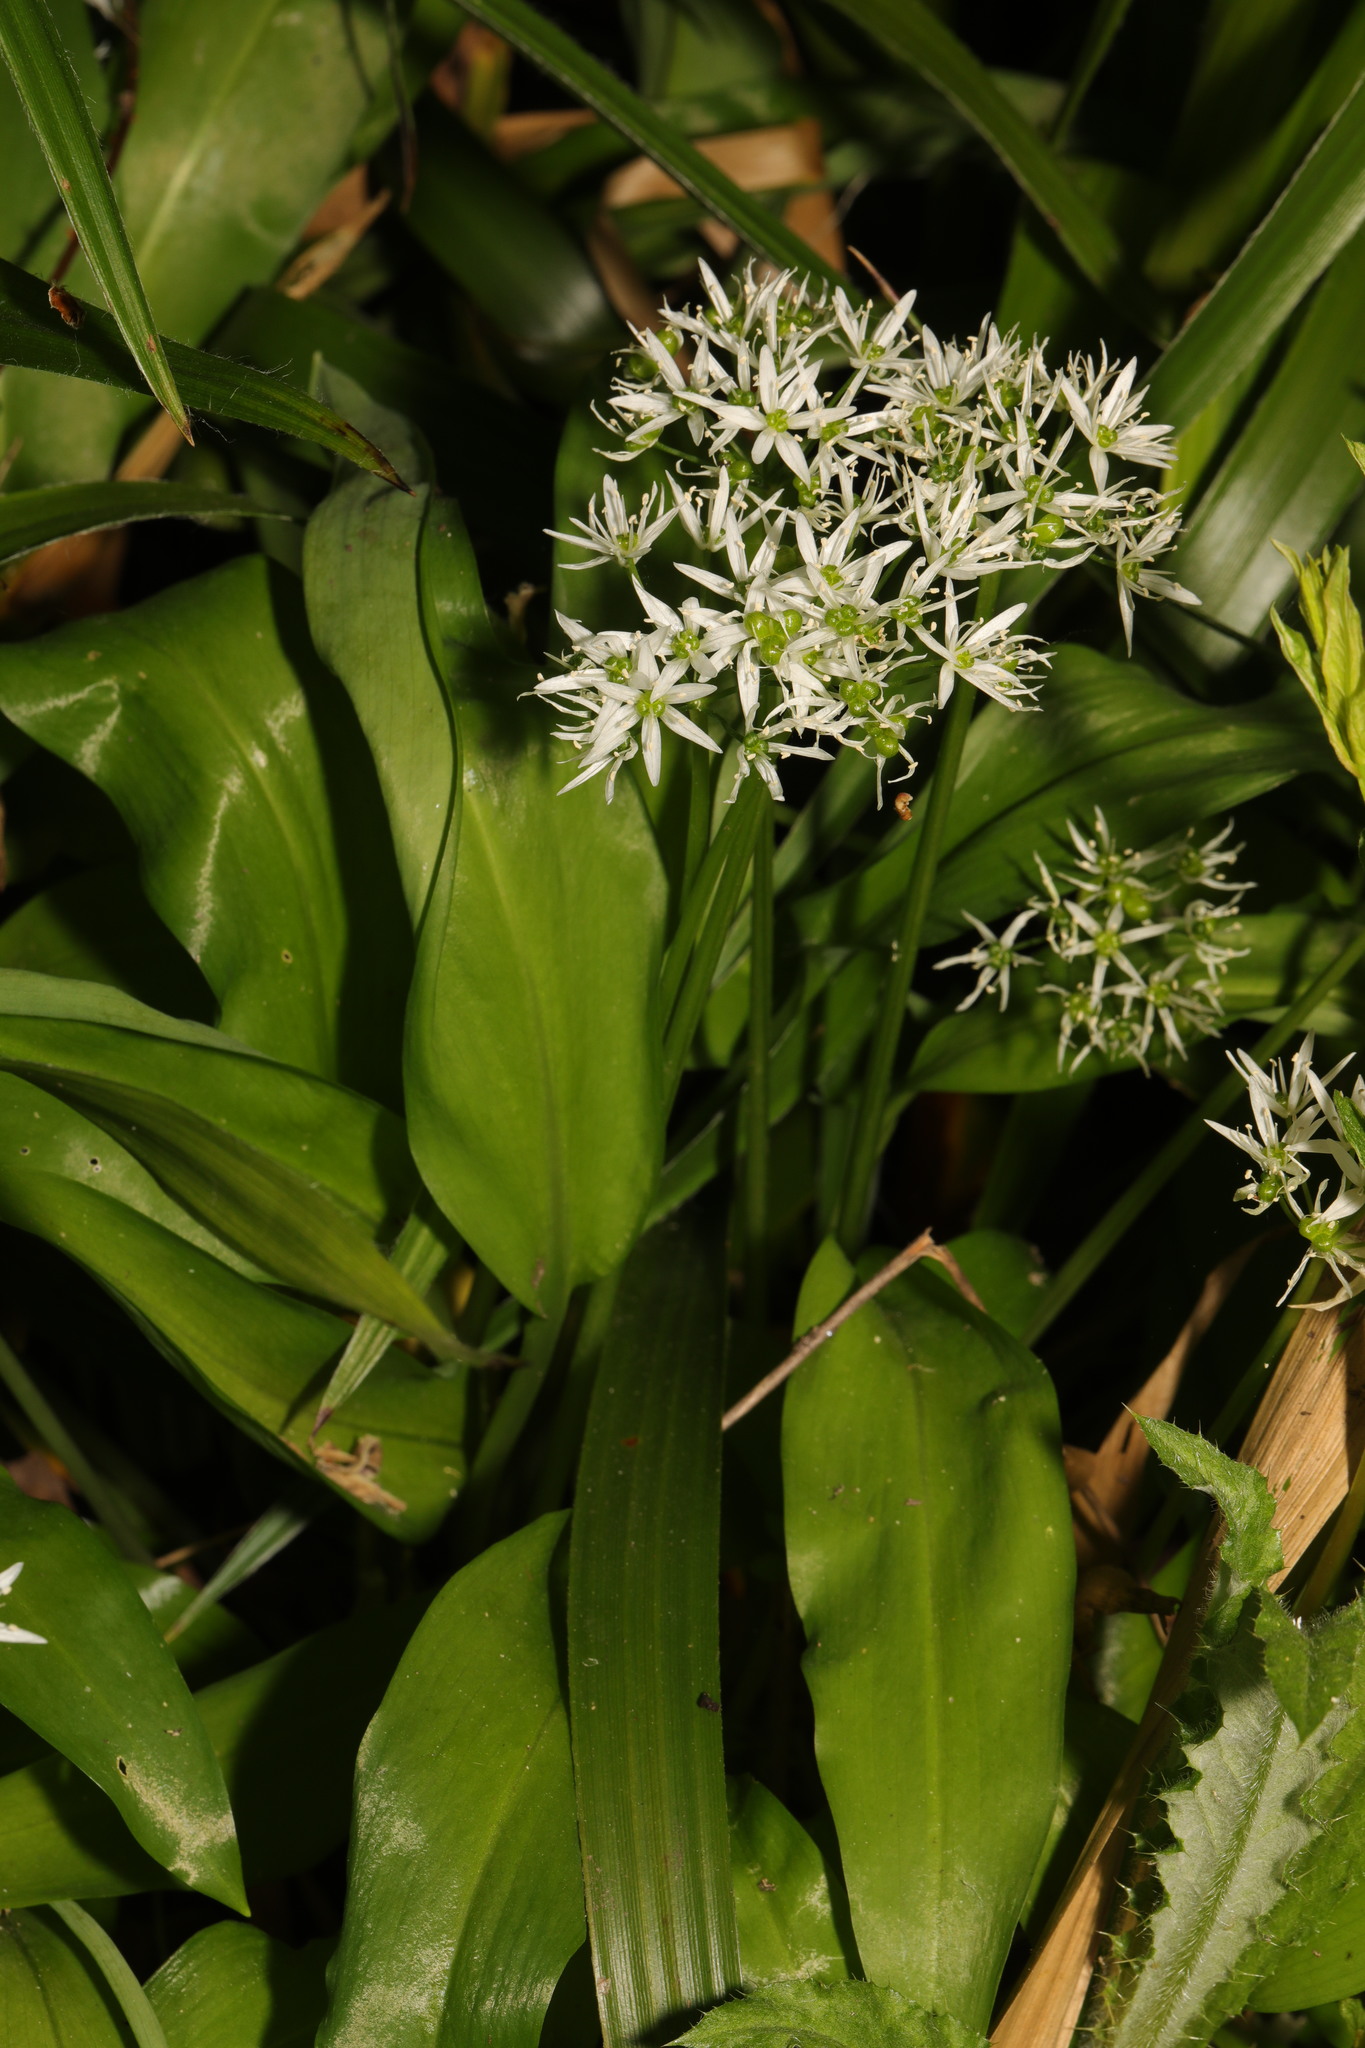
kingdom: Plantae
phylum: Tracheophyta
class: Liliopsida
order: Asparagales
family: Amaryllidaceae
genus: Allium
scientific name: Allium ursinum
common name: Ramsons
